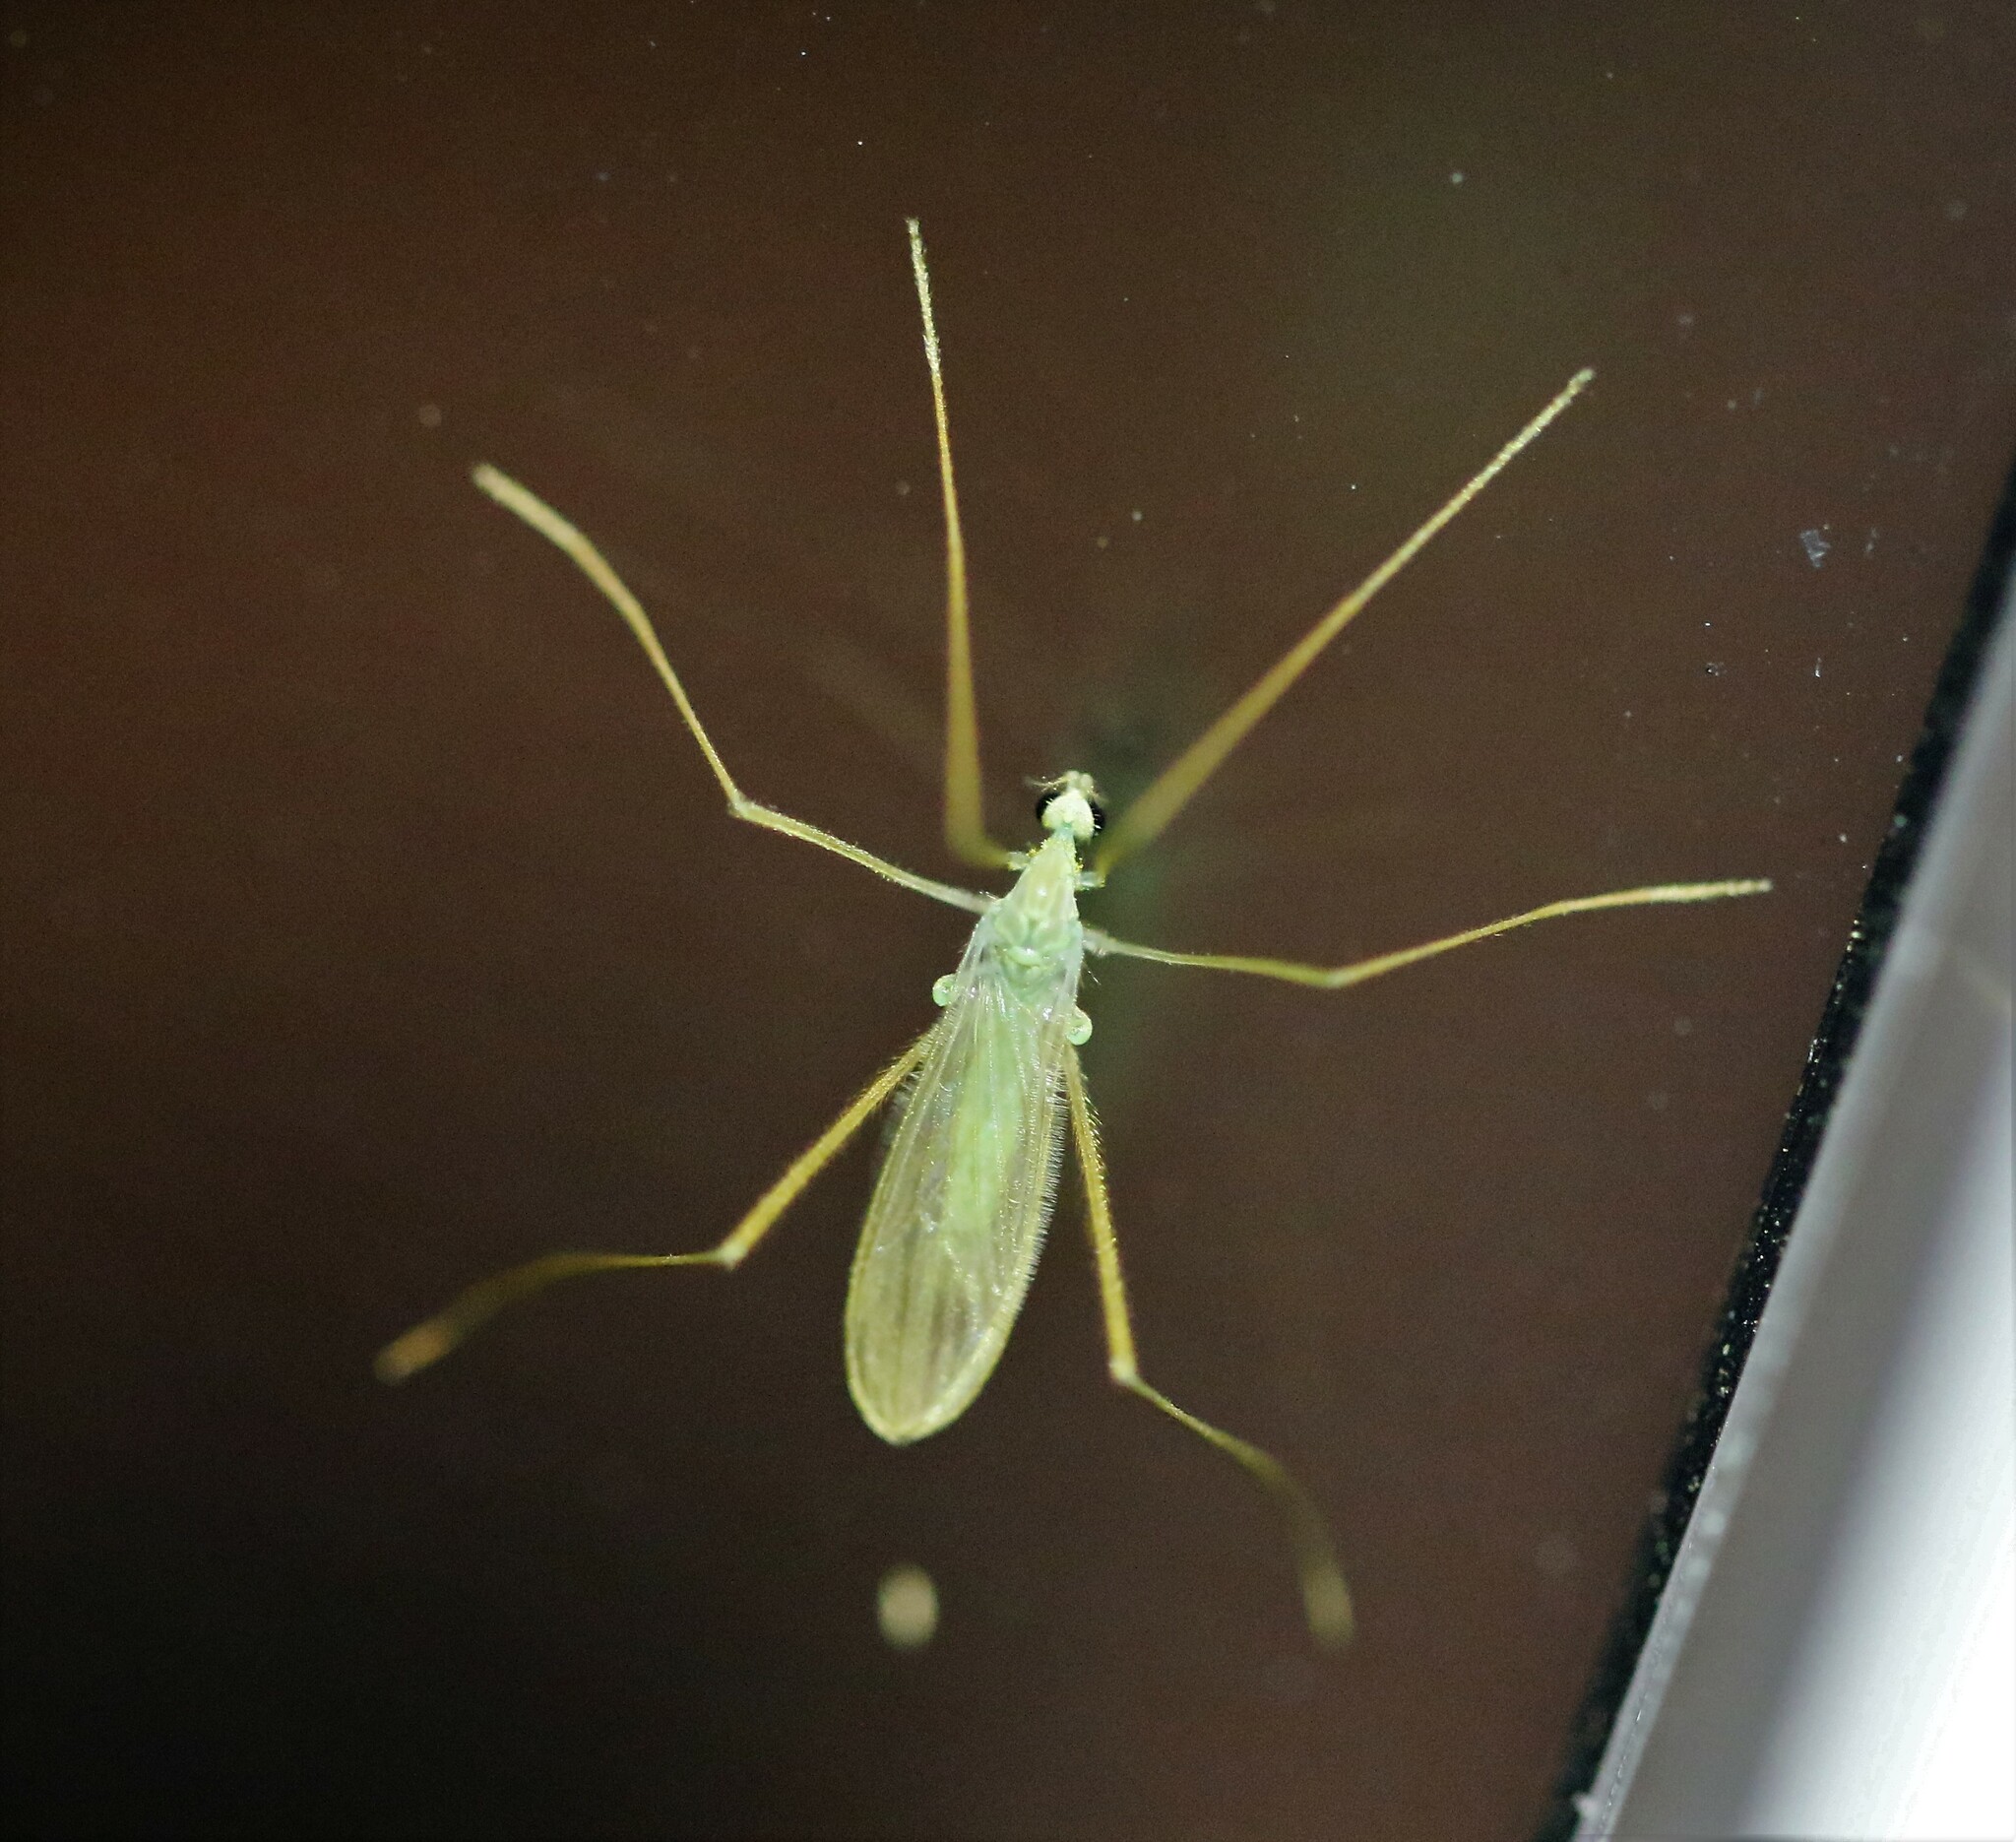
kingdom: Animalia
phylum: Arthropoda
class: Insecta
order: Diptera
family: Limoniidae
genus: Erioptera
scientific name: Erioptera
